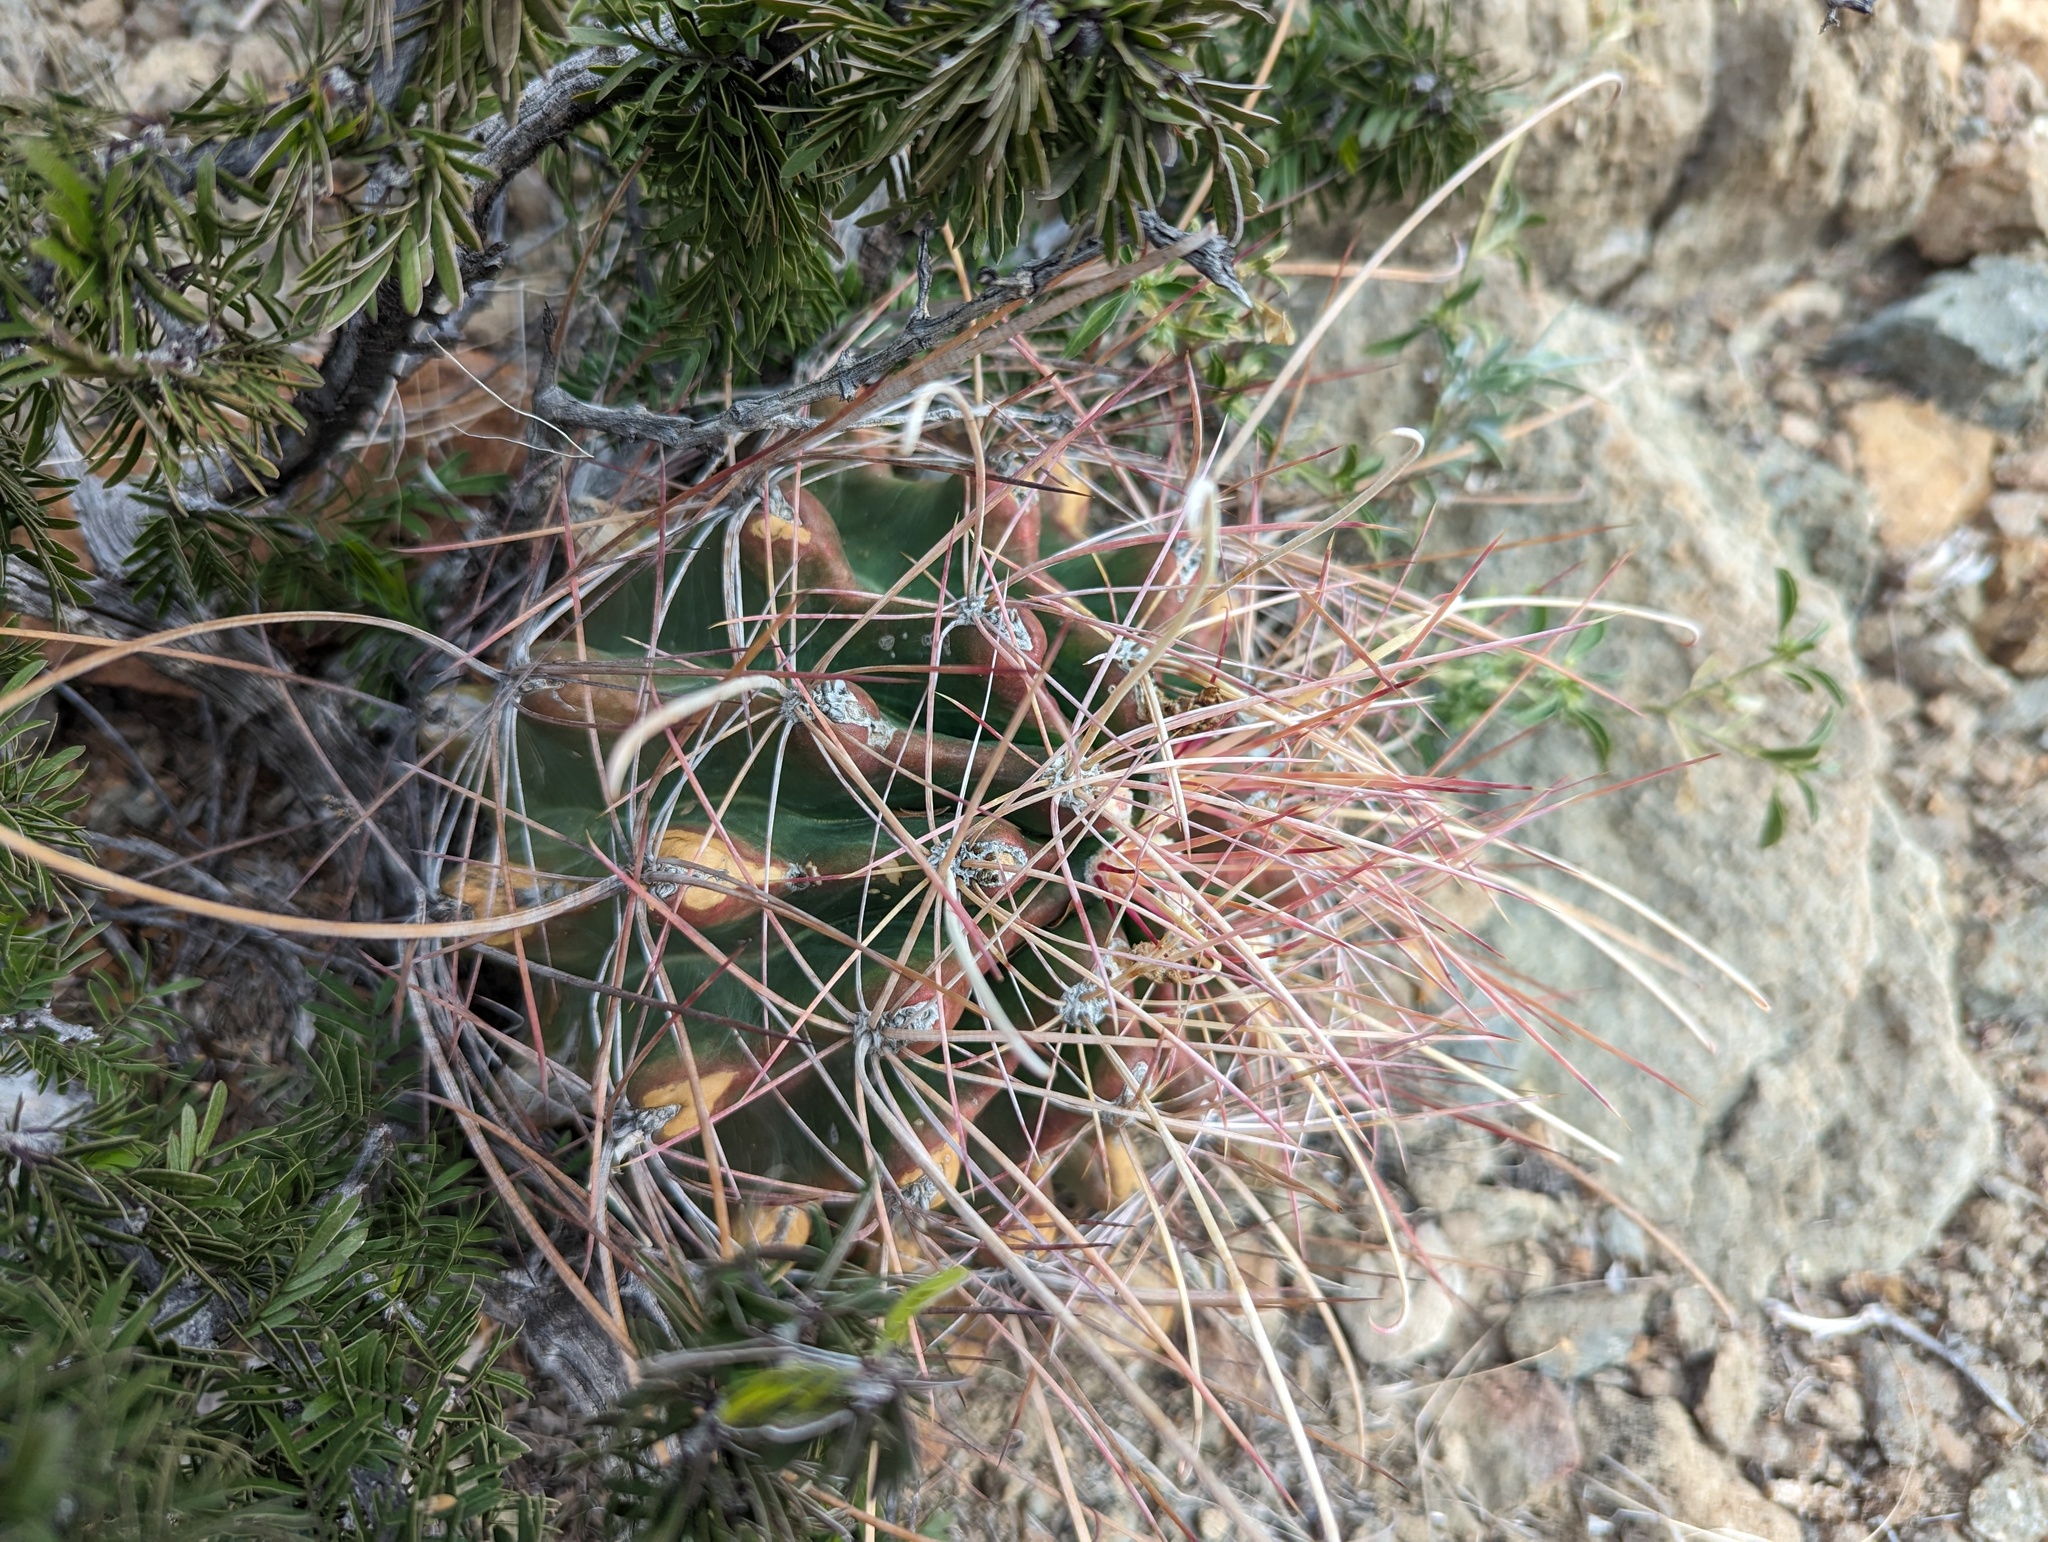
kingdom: Plantae
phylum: Tracheophyta
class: Magnoliopsida
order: Caryophyllales
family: Cactaceae
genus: Bisnaga
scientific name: Bisnaga hamatacantha
